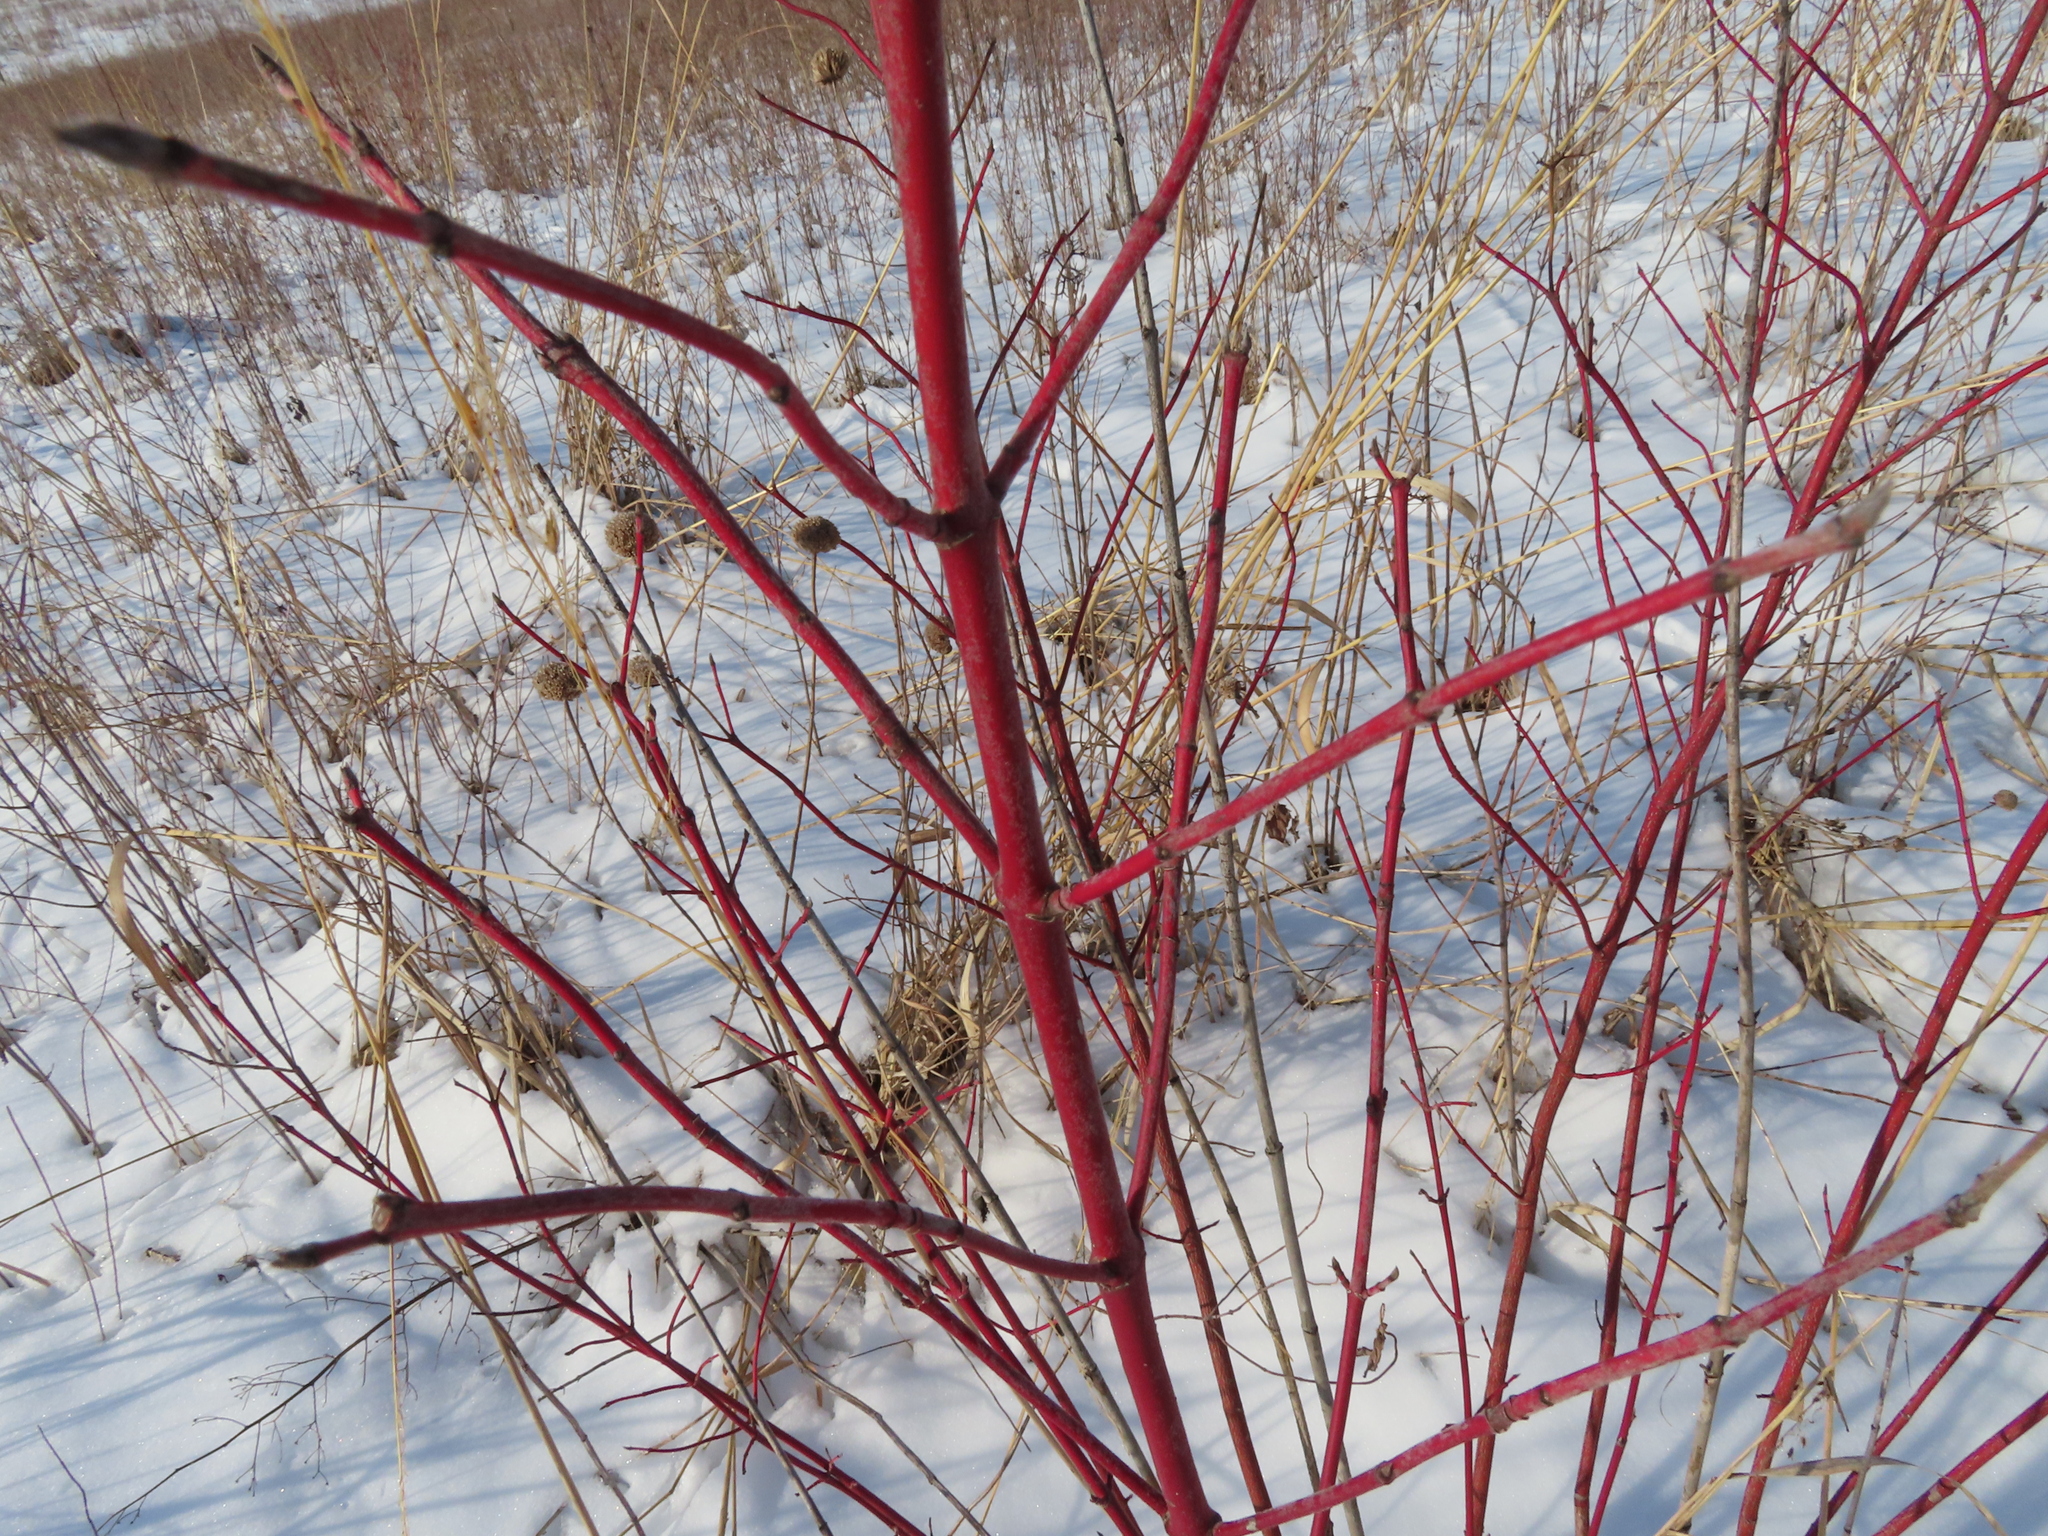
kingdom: Plantae
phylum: Tracheophyta
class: Magnoliopsida
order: Cornales
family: Cornaceae
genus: Cornus
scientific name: Cornus sericea
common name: Red-osier dogwood
